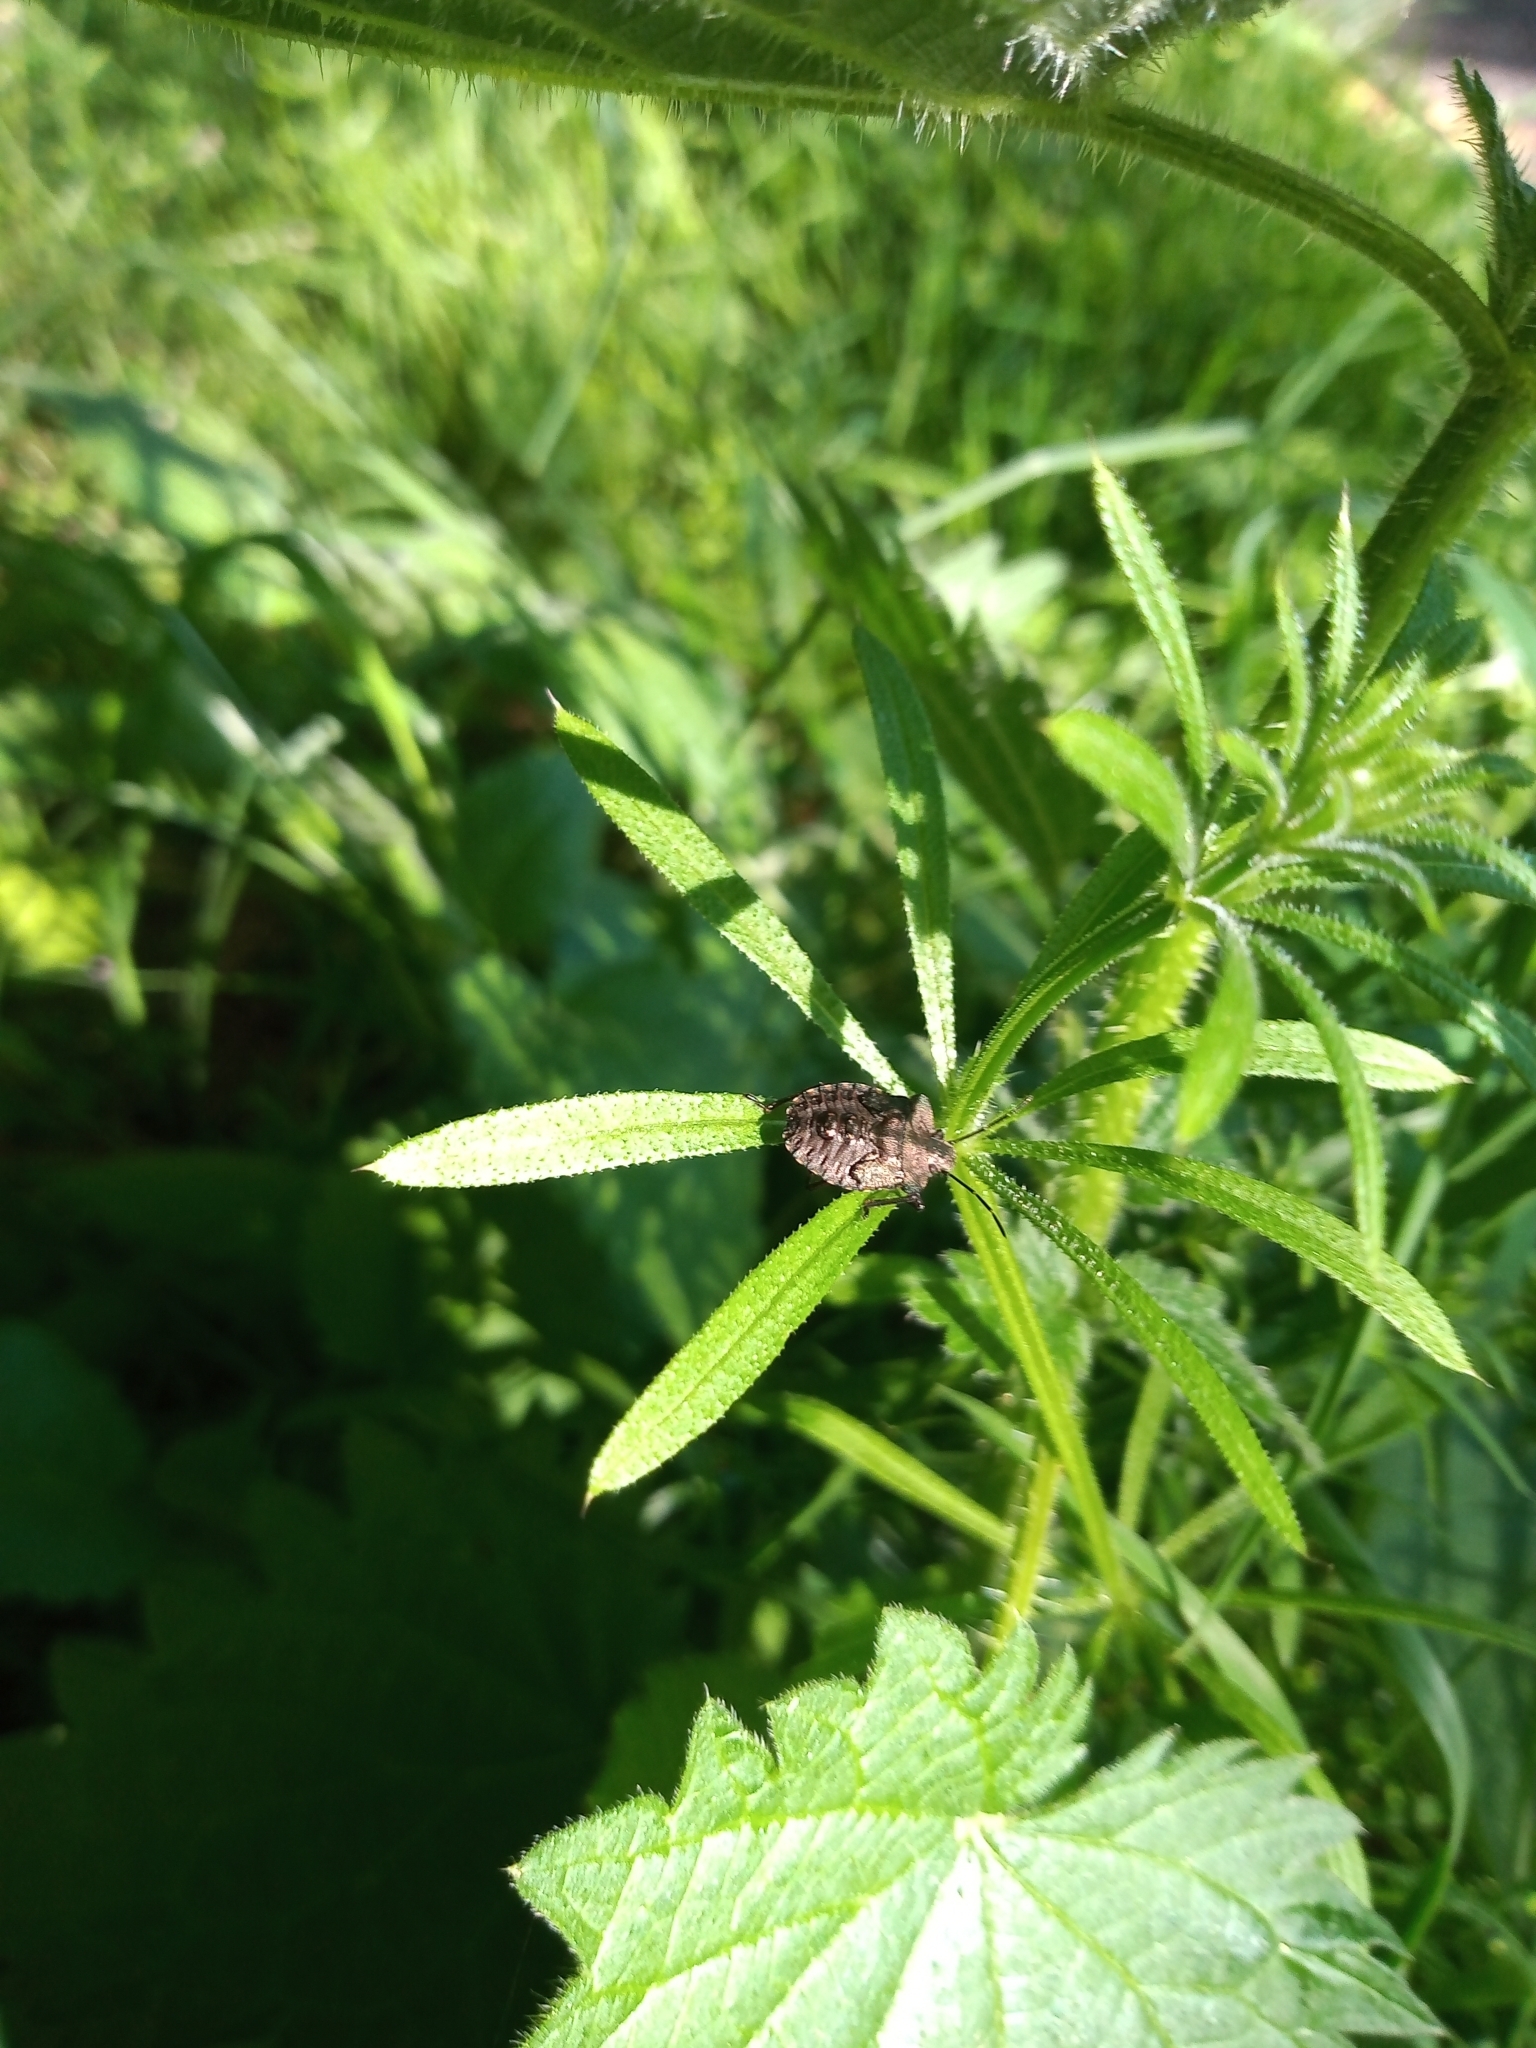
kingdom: Animalia
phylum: Arthropoda
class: Insecta
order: Hemiptera
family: Pentatomidae
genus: Pentatoma
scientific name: Pentatoma rufipes
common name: Forest bug
